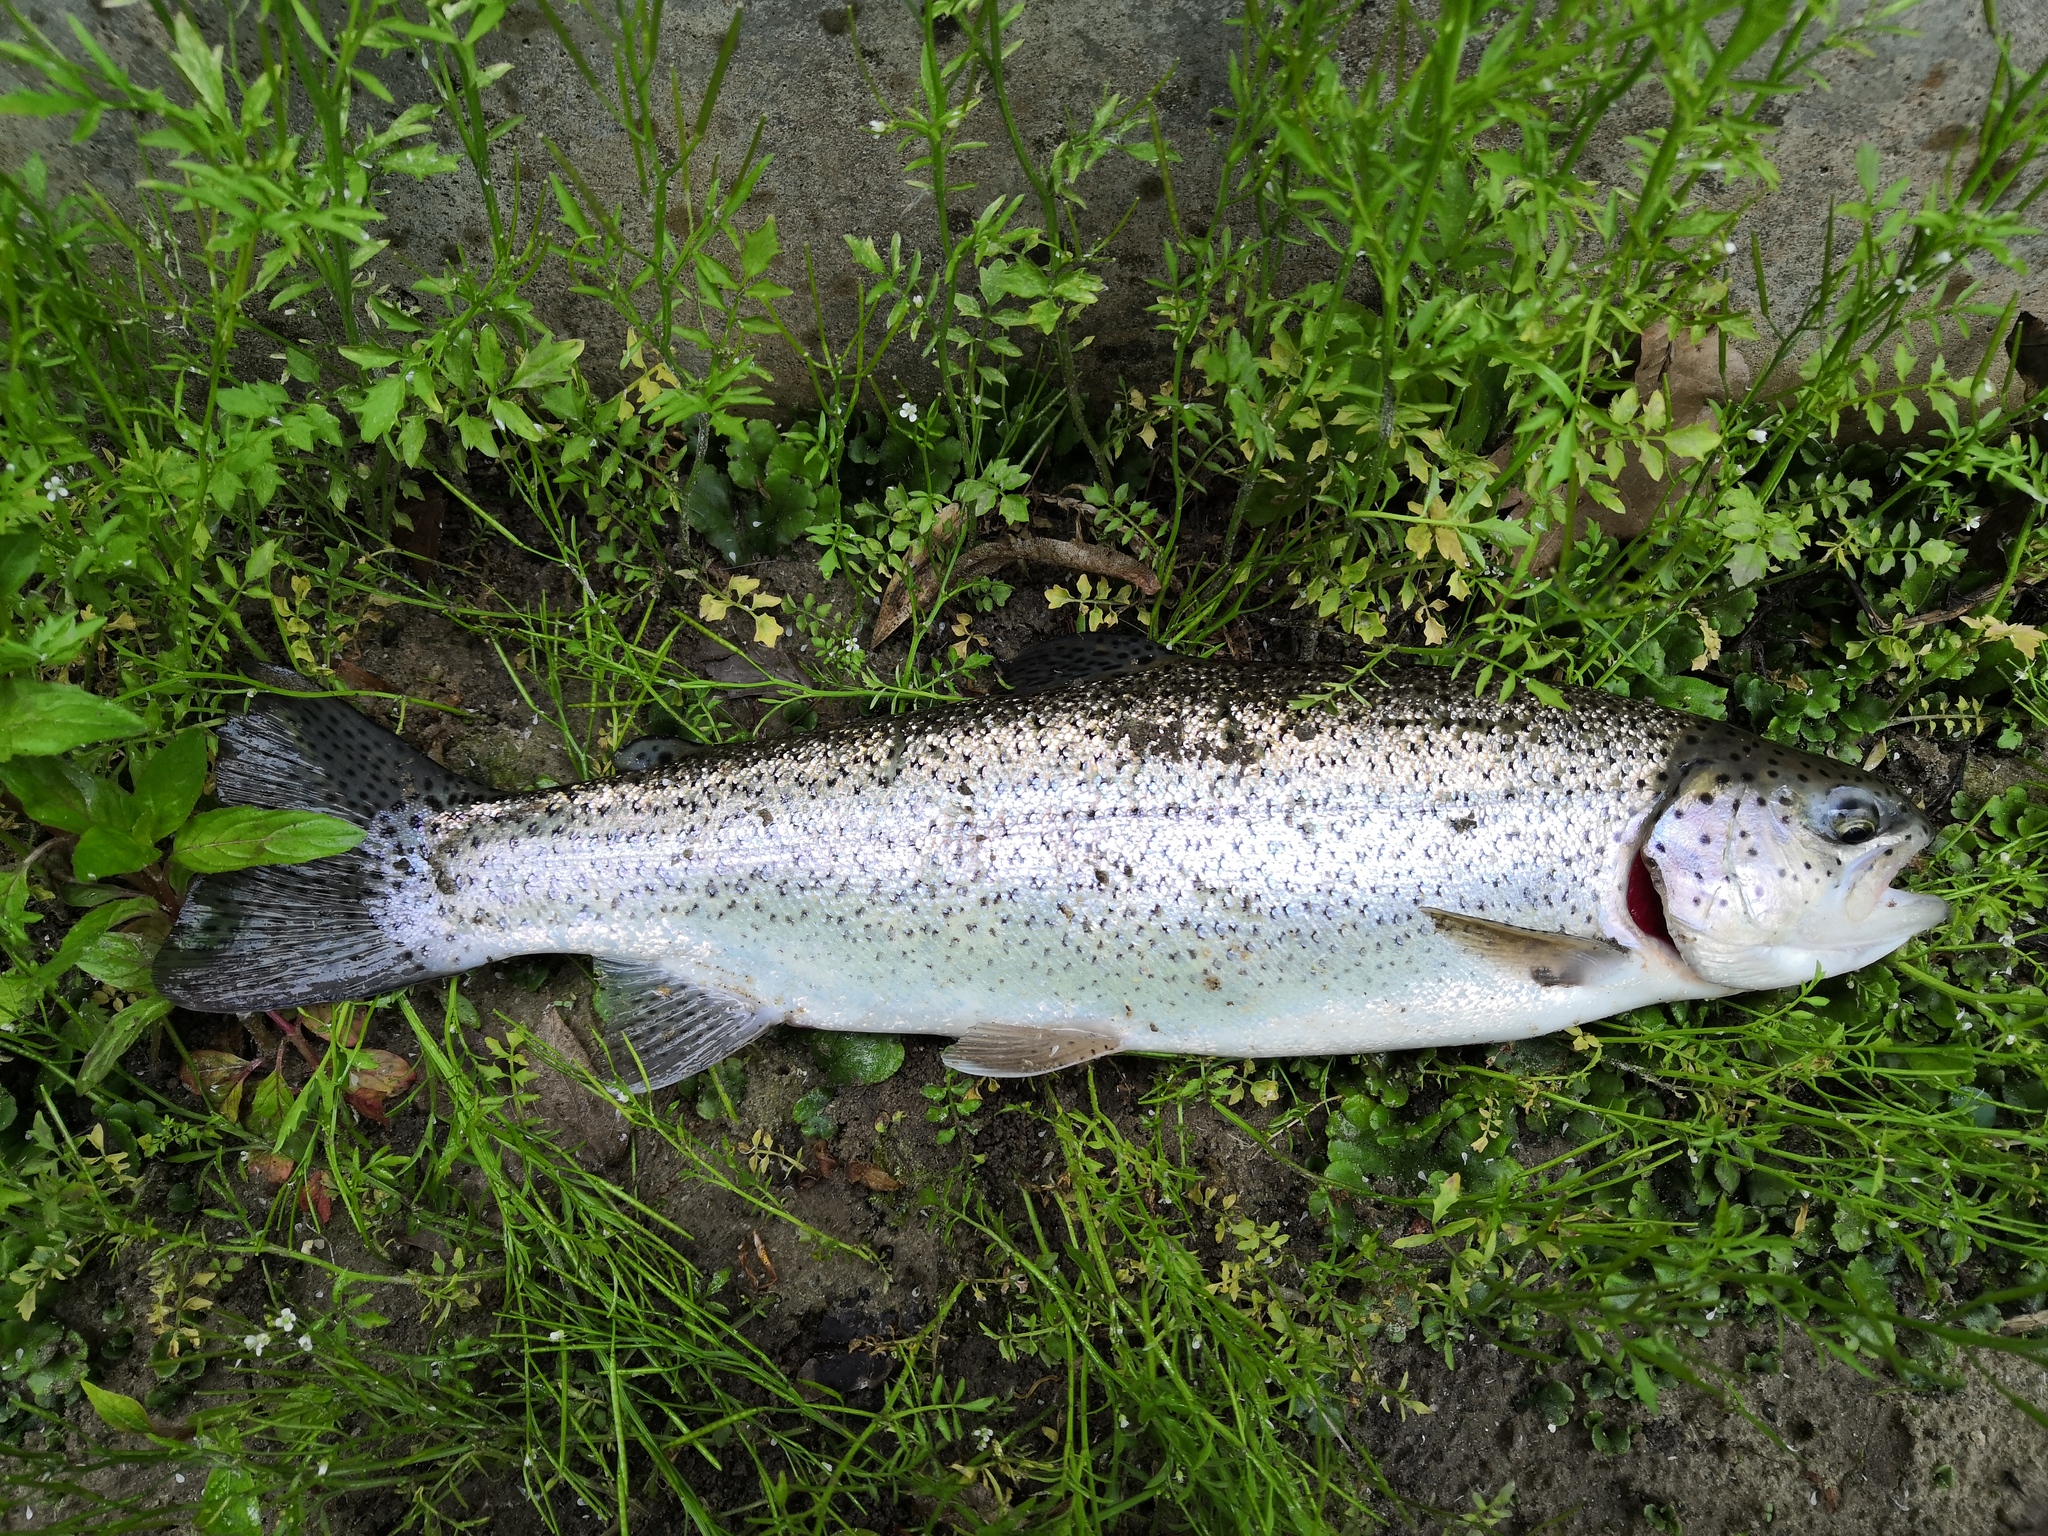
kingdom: Animalia
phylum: Chordata
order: Salmoniformes
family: Salmonidae
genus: Oncorhynchus
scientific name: Oncorhynchus mykiss
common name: Rainbow trout
